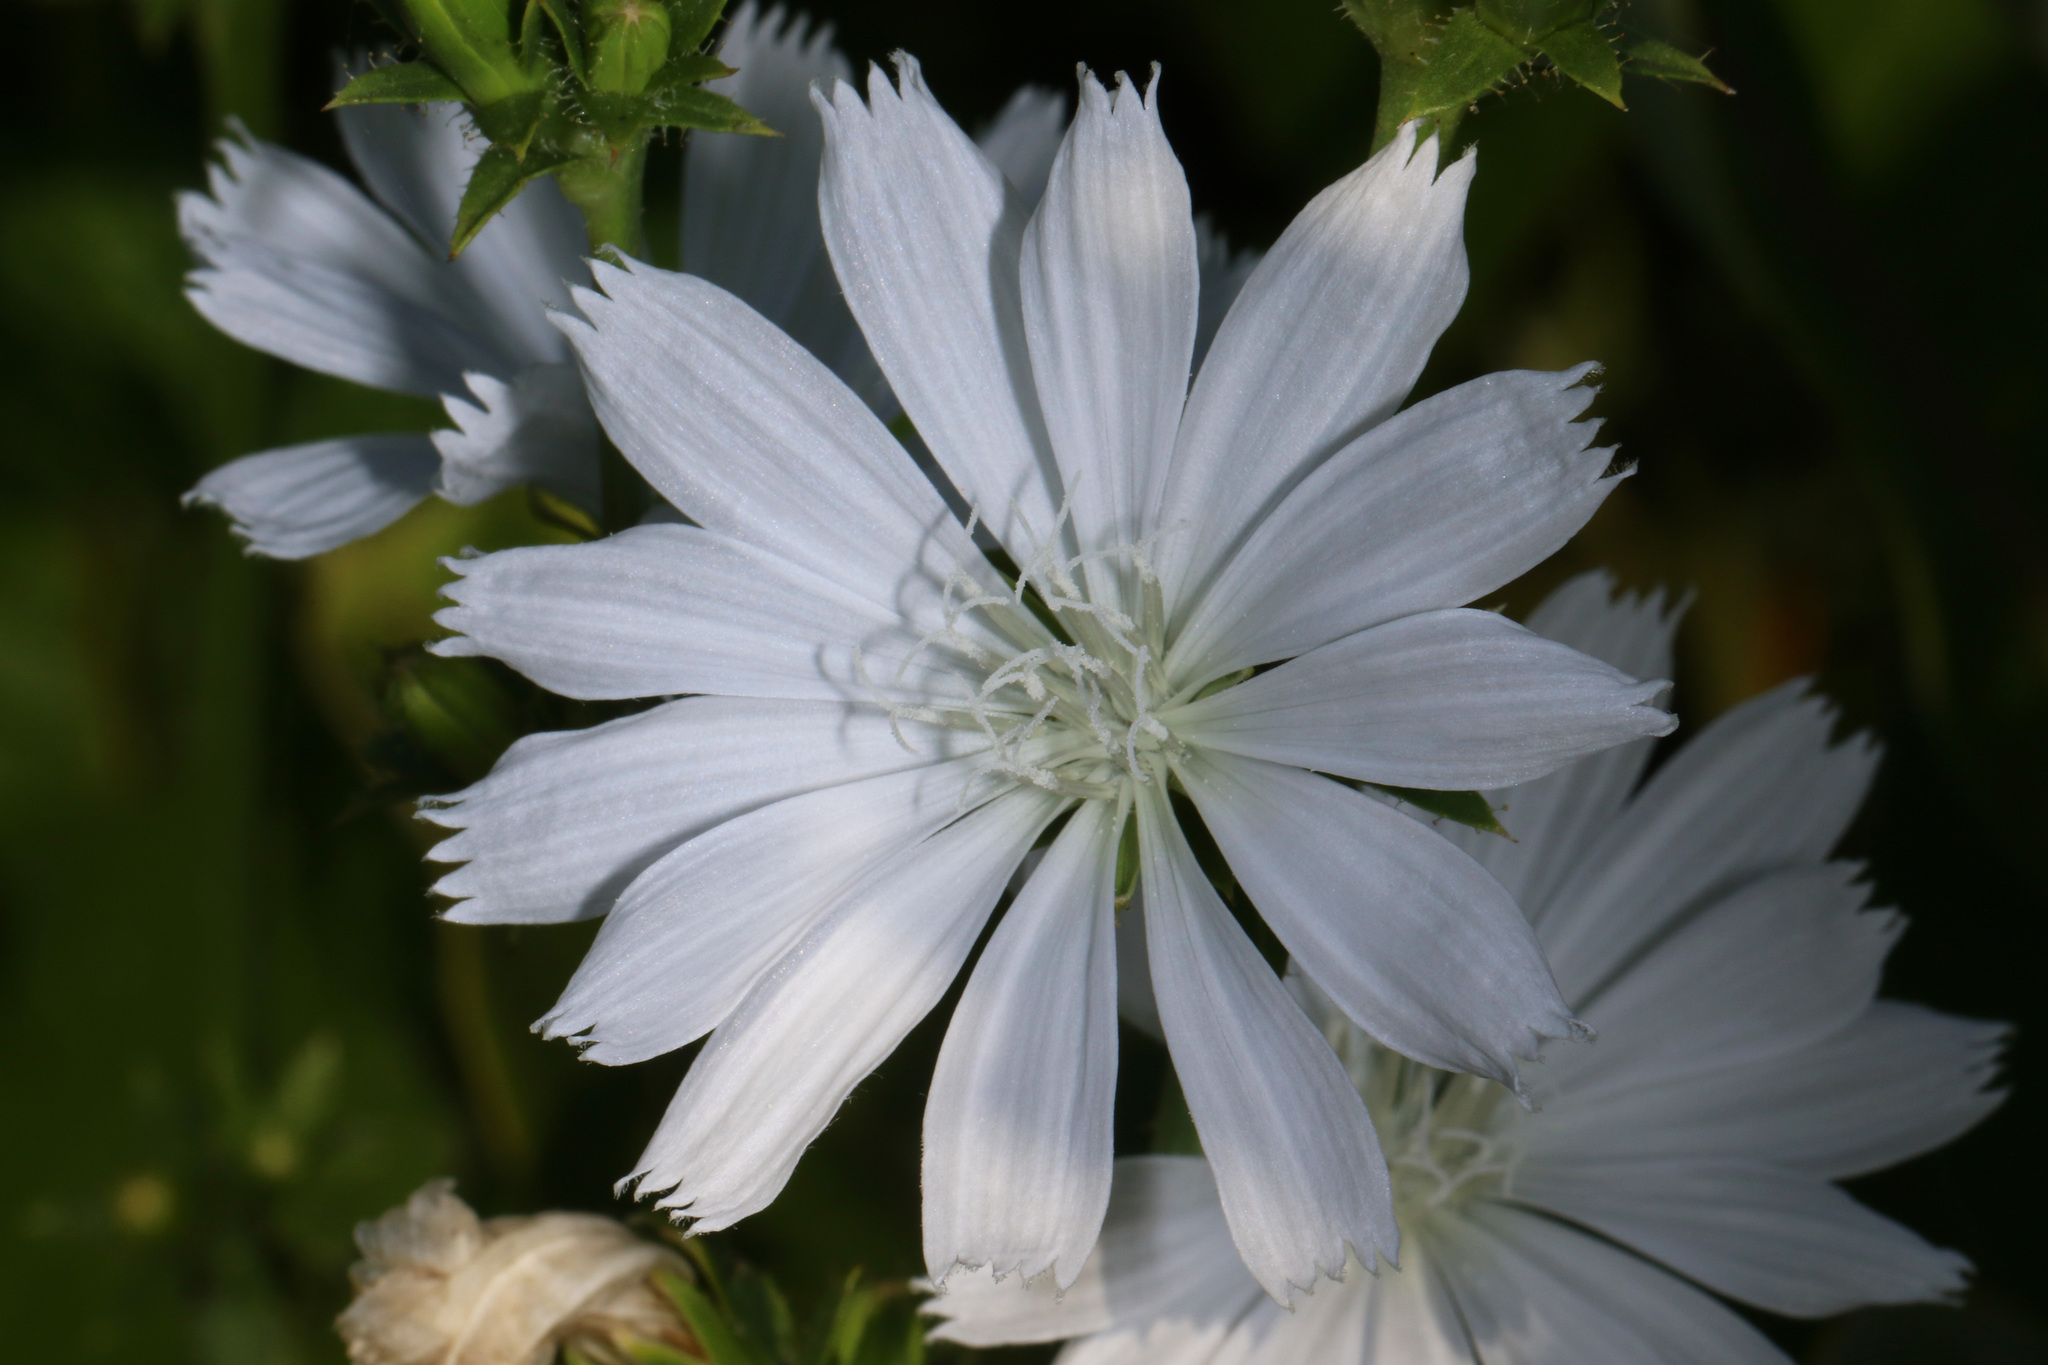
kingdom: Plantae
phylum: Tracheophyta
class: Magnoliopsida
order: Asterales
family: Asteraceae
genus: Cichorium
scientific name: Cichorium intybus
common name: Chicory
